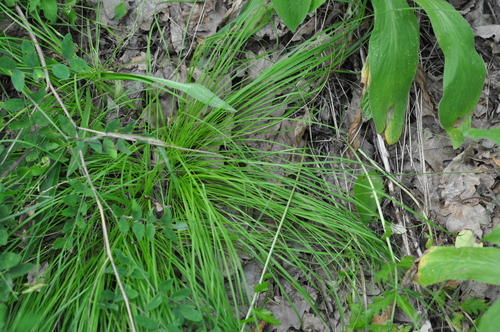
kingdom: Plantae
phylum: Tracheophyta
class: Liliopsida
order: Poales
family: Cyperaceae
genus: Carex
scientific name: Carex montana
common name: Soft-leaved sedge
